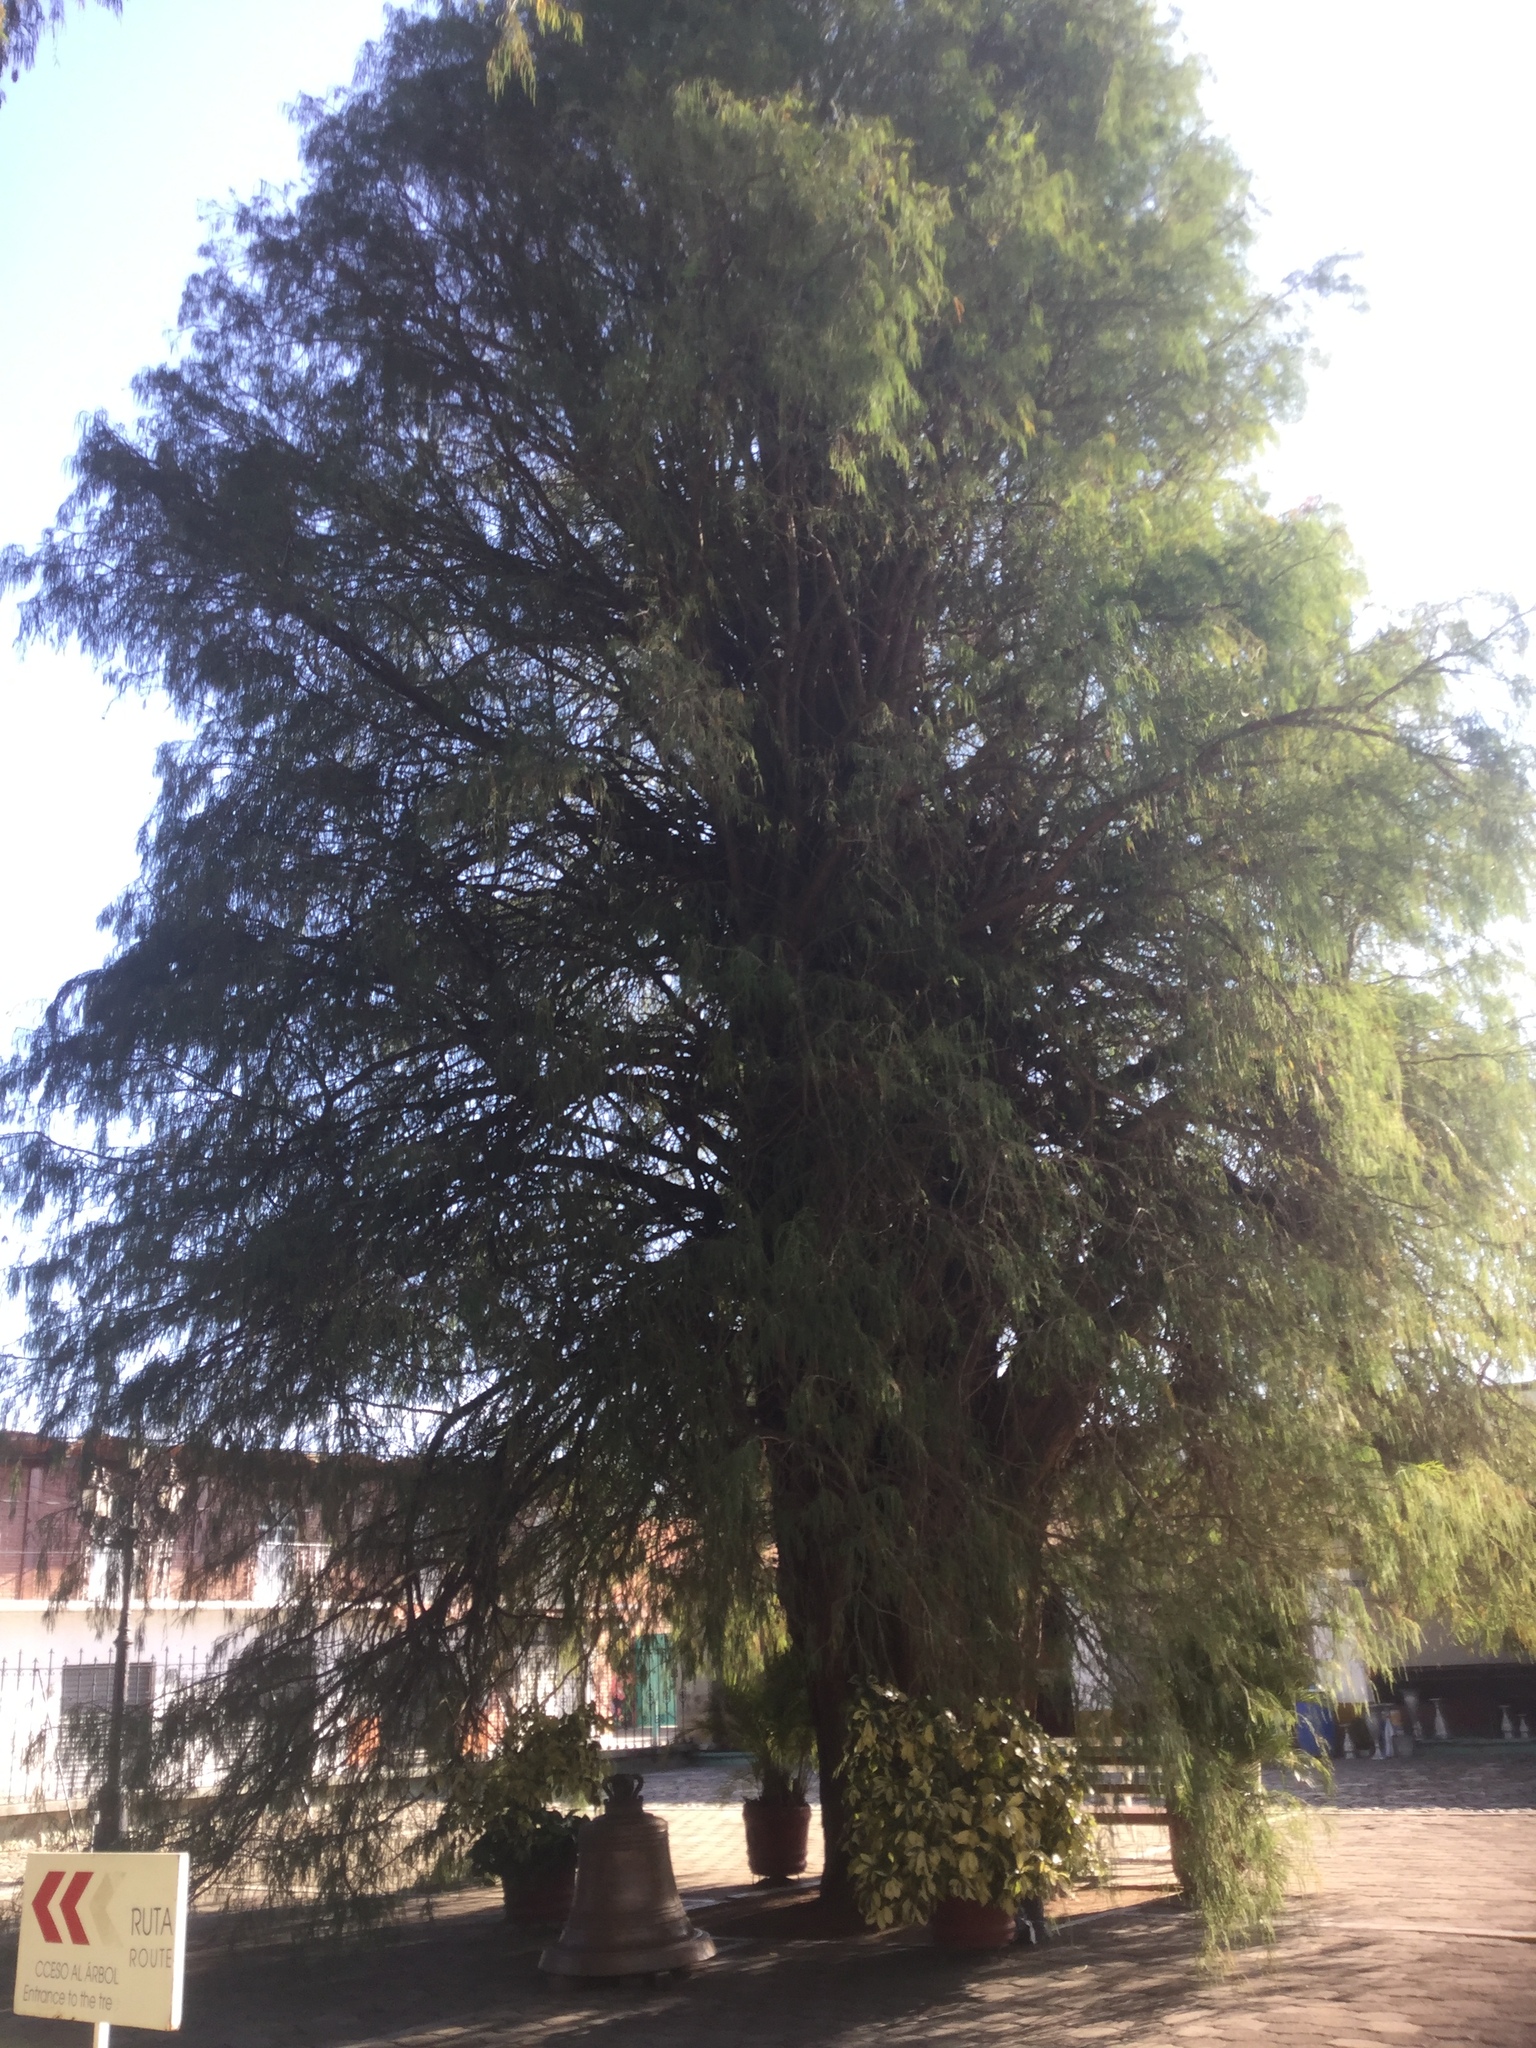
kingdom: Plantae
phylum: Tracheophyta
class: Pinopsida
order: Pinales
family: Cupressaceae
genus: Taxodium
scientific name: Taxodium mucronatum
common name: Montezume bald cypress
